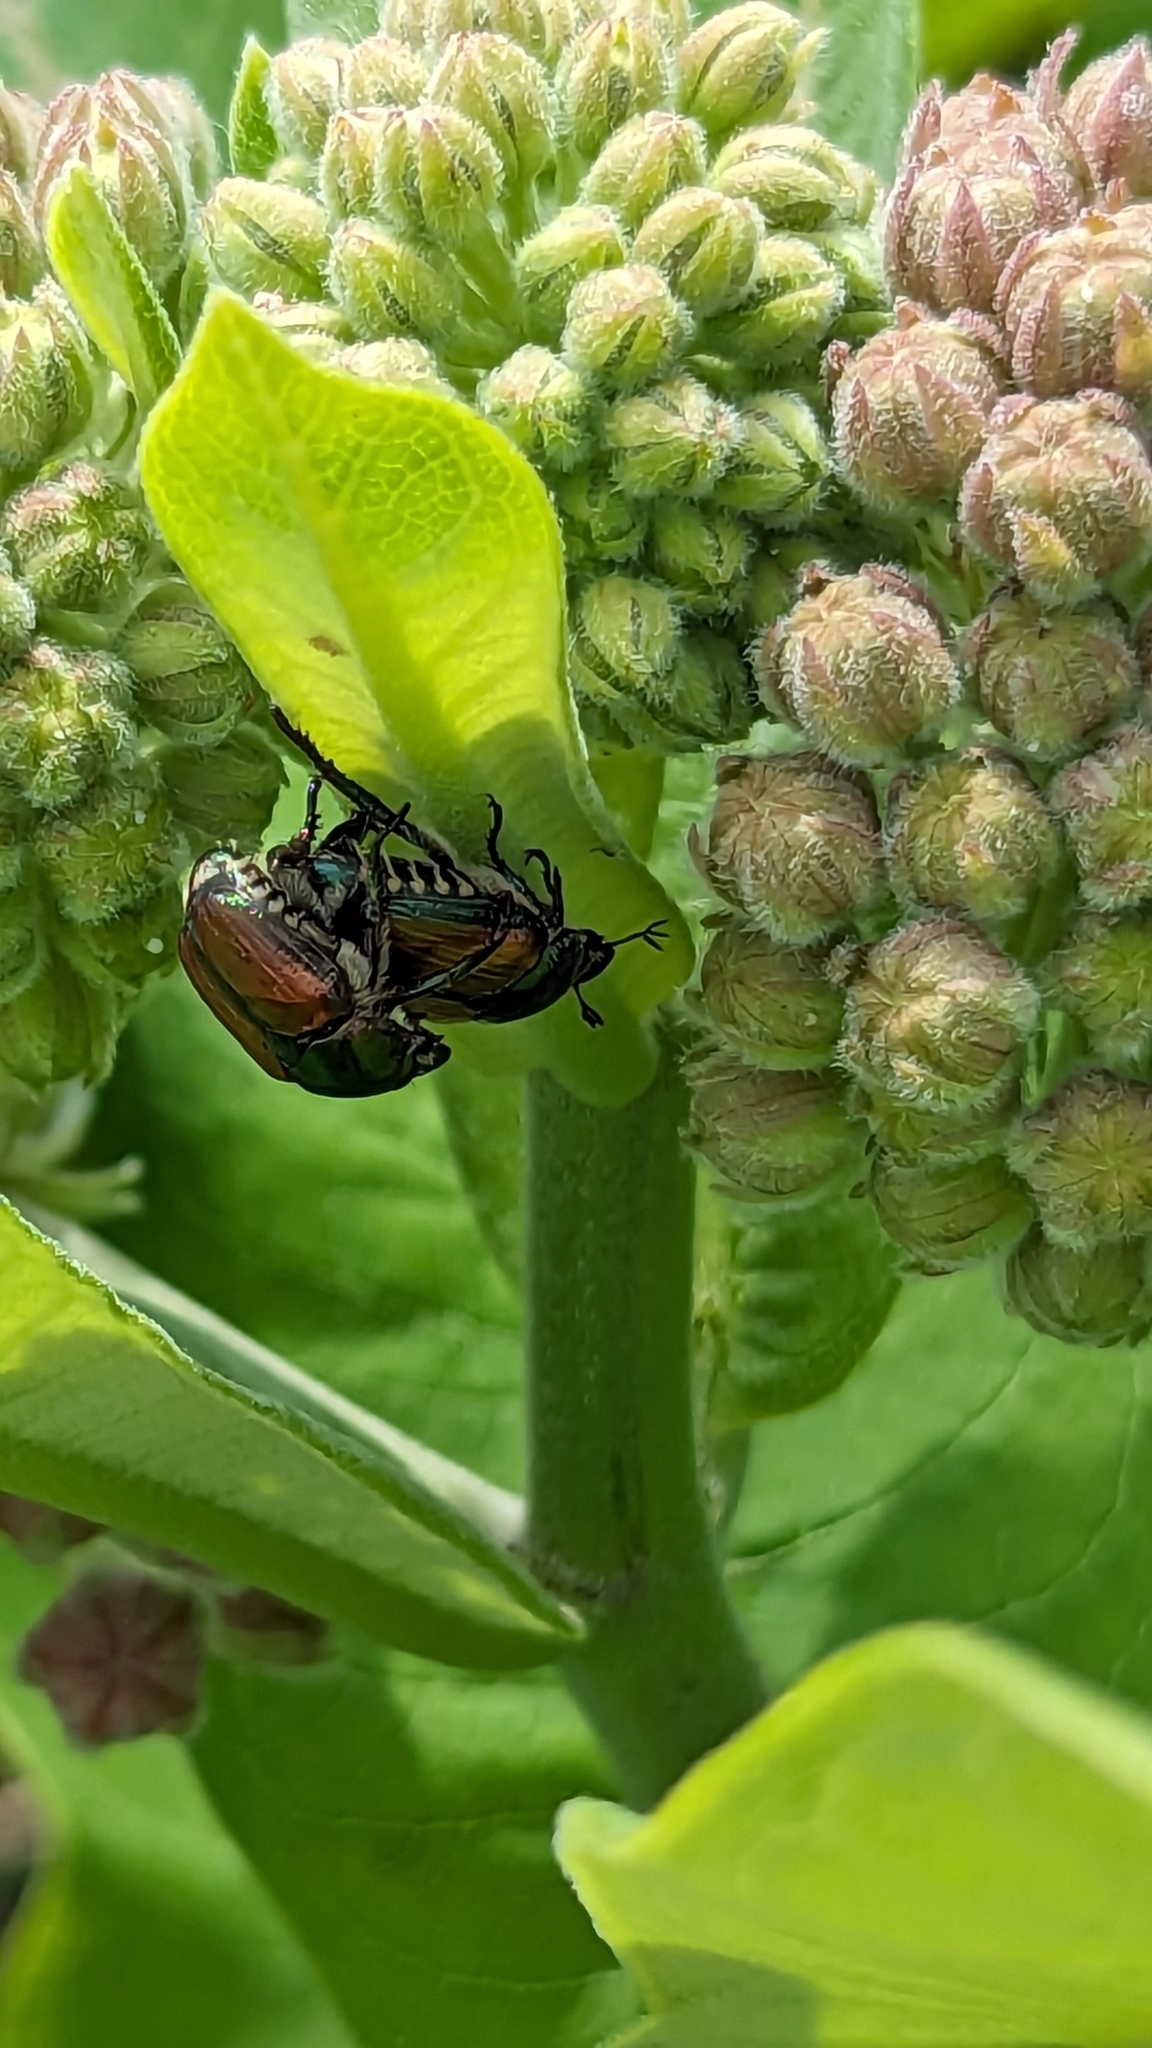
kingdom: Animalia
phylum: Arthropoda
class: Insecta
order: Coleoptera
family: Scarabaeidae
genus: Popillia
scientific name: Popillia japonica
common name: Japanese beetle
